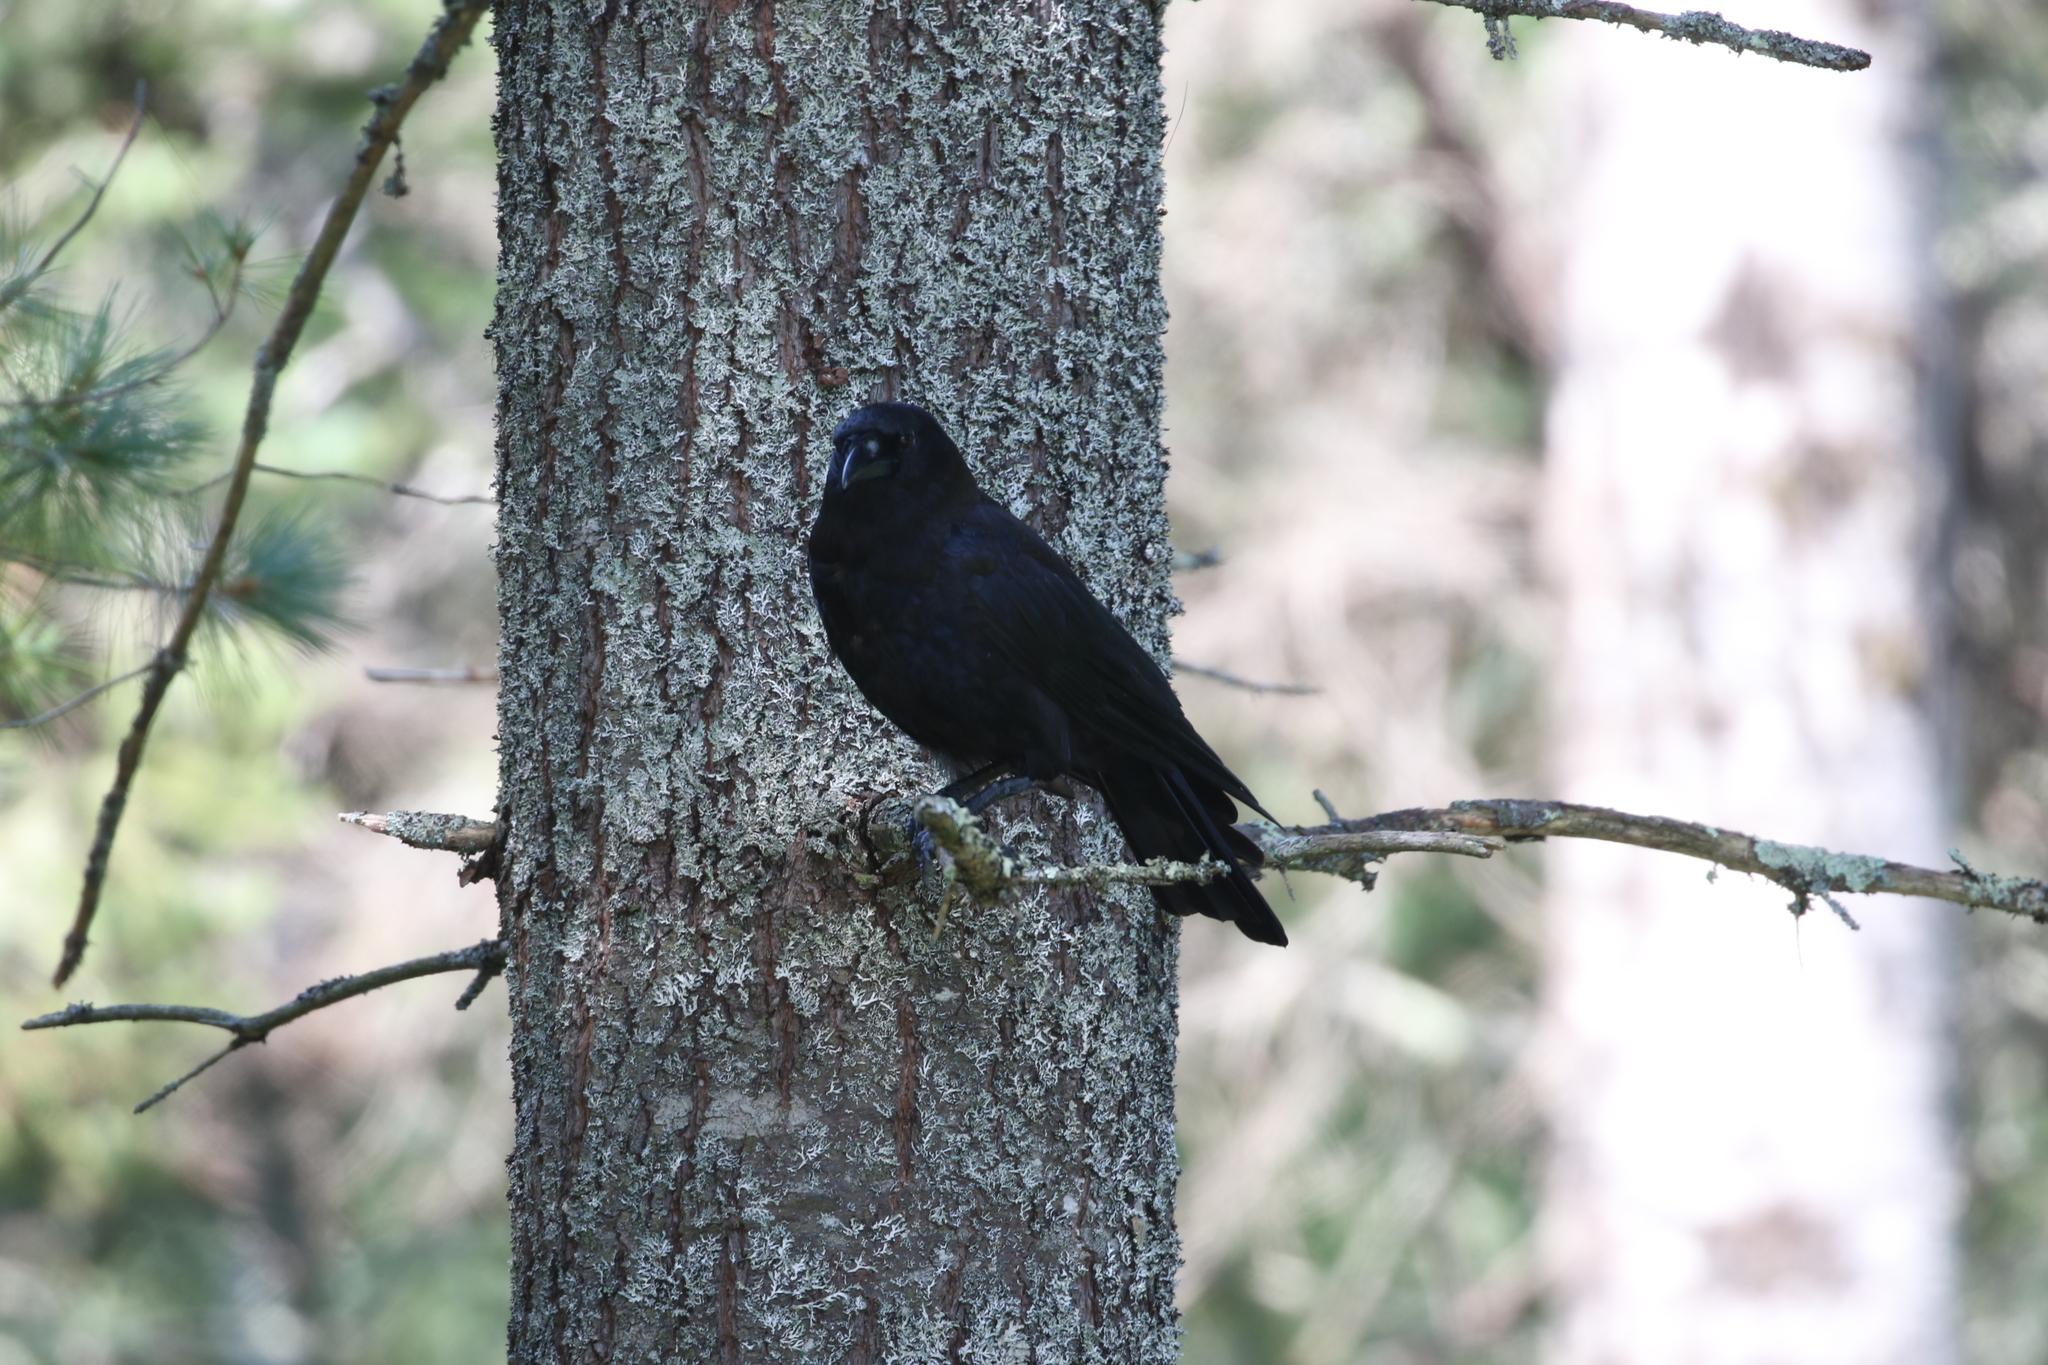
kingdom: Animalia
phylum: Chordata
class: Aves
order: Passeriformes
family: Corvidae
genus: Corvus
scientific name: Corvus brachyrhynchos
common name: American crow
